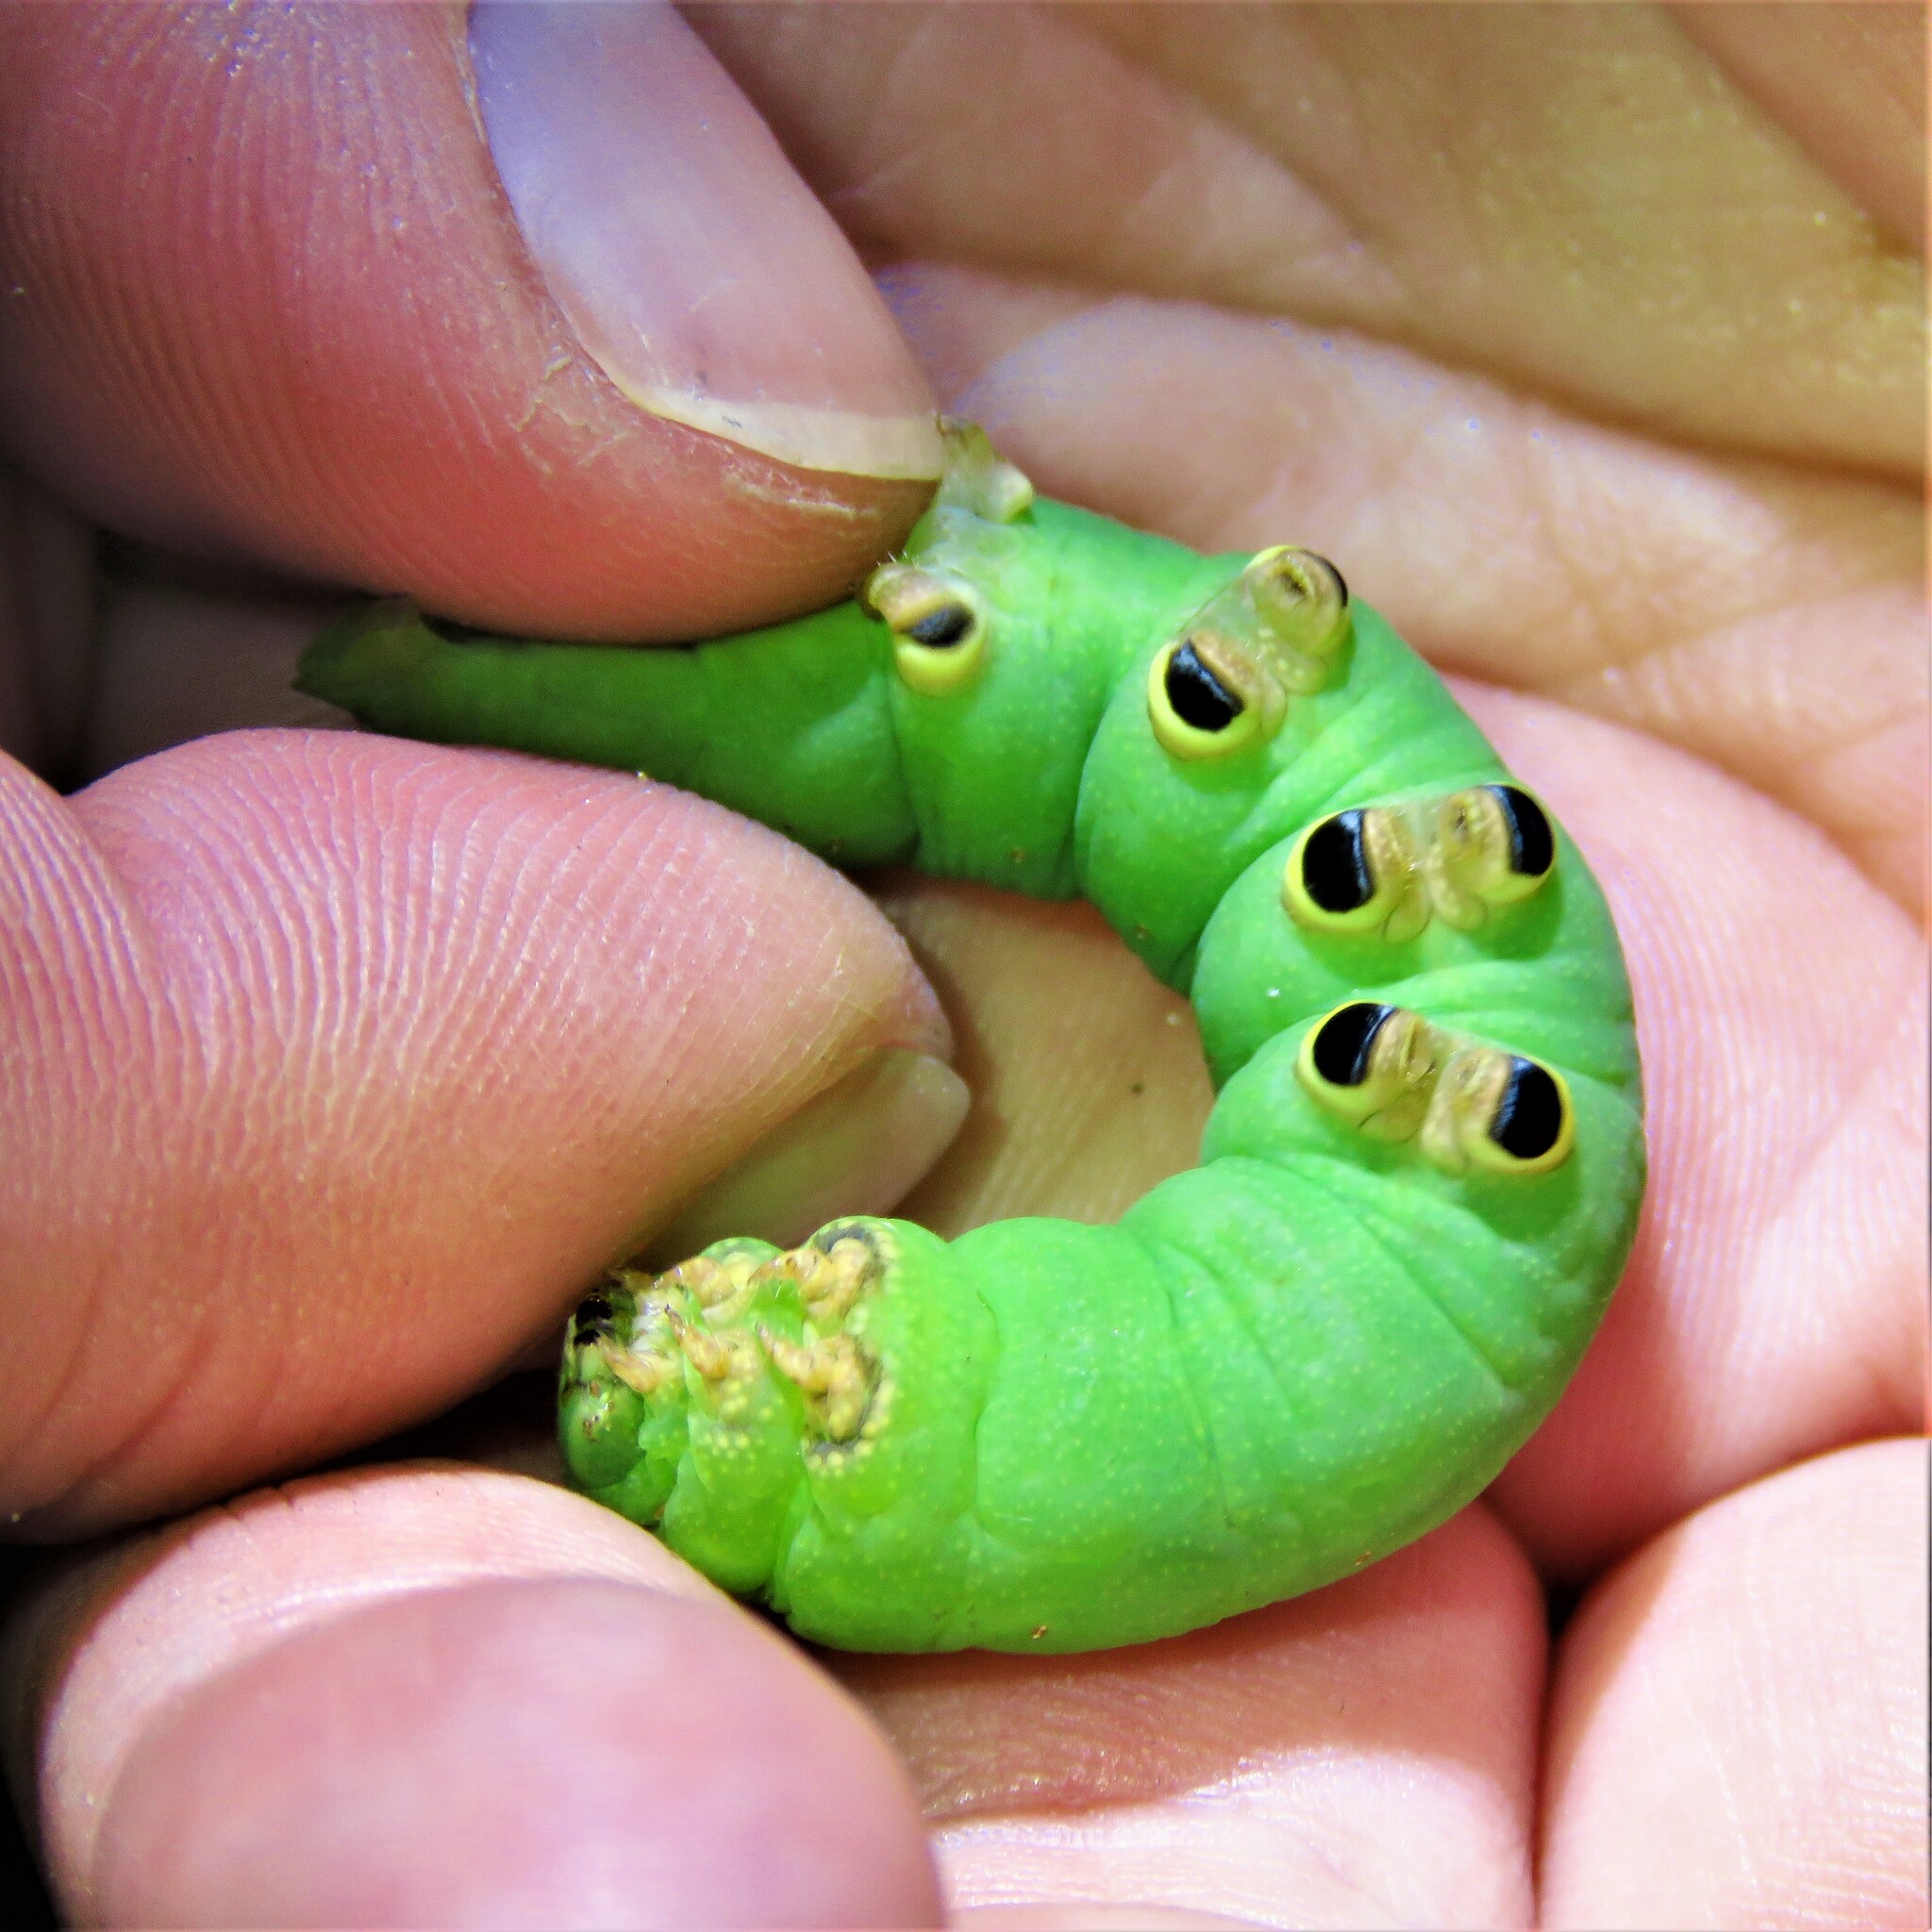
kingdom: Animalia
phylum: Arthropoda
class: Insecta
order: Lepidoptera
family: Sphingidae
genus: Erinnyis
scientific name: Erinnyis obscura
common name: Obscure sphinx
